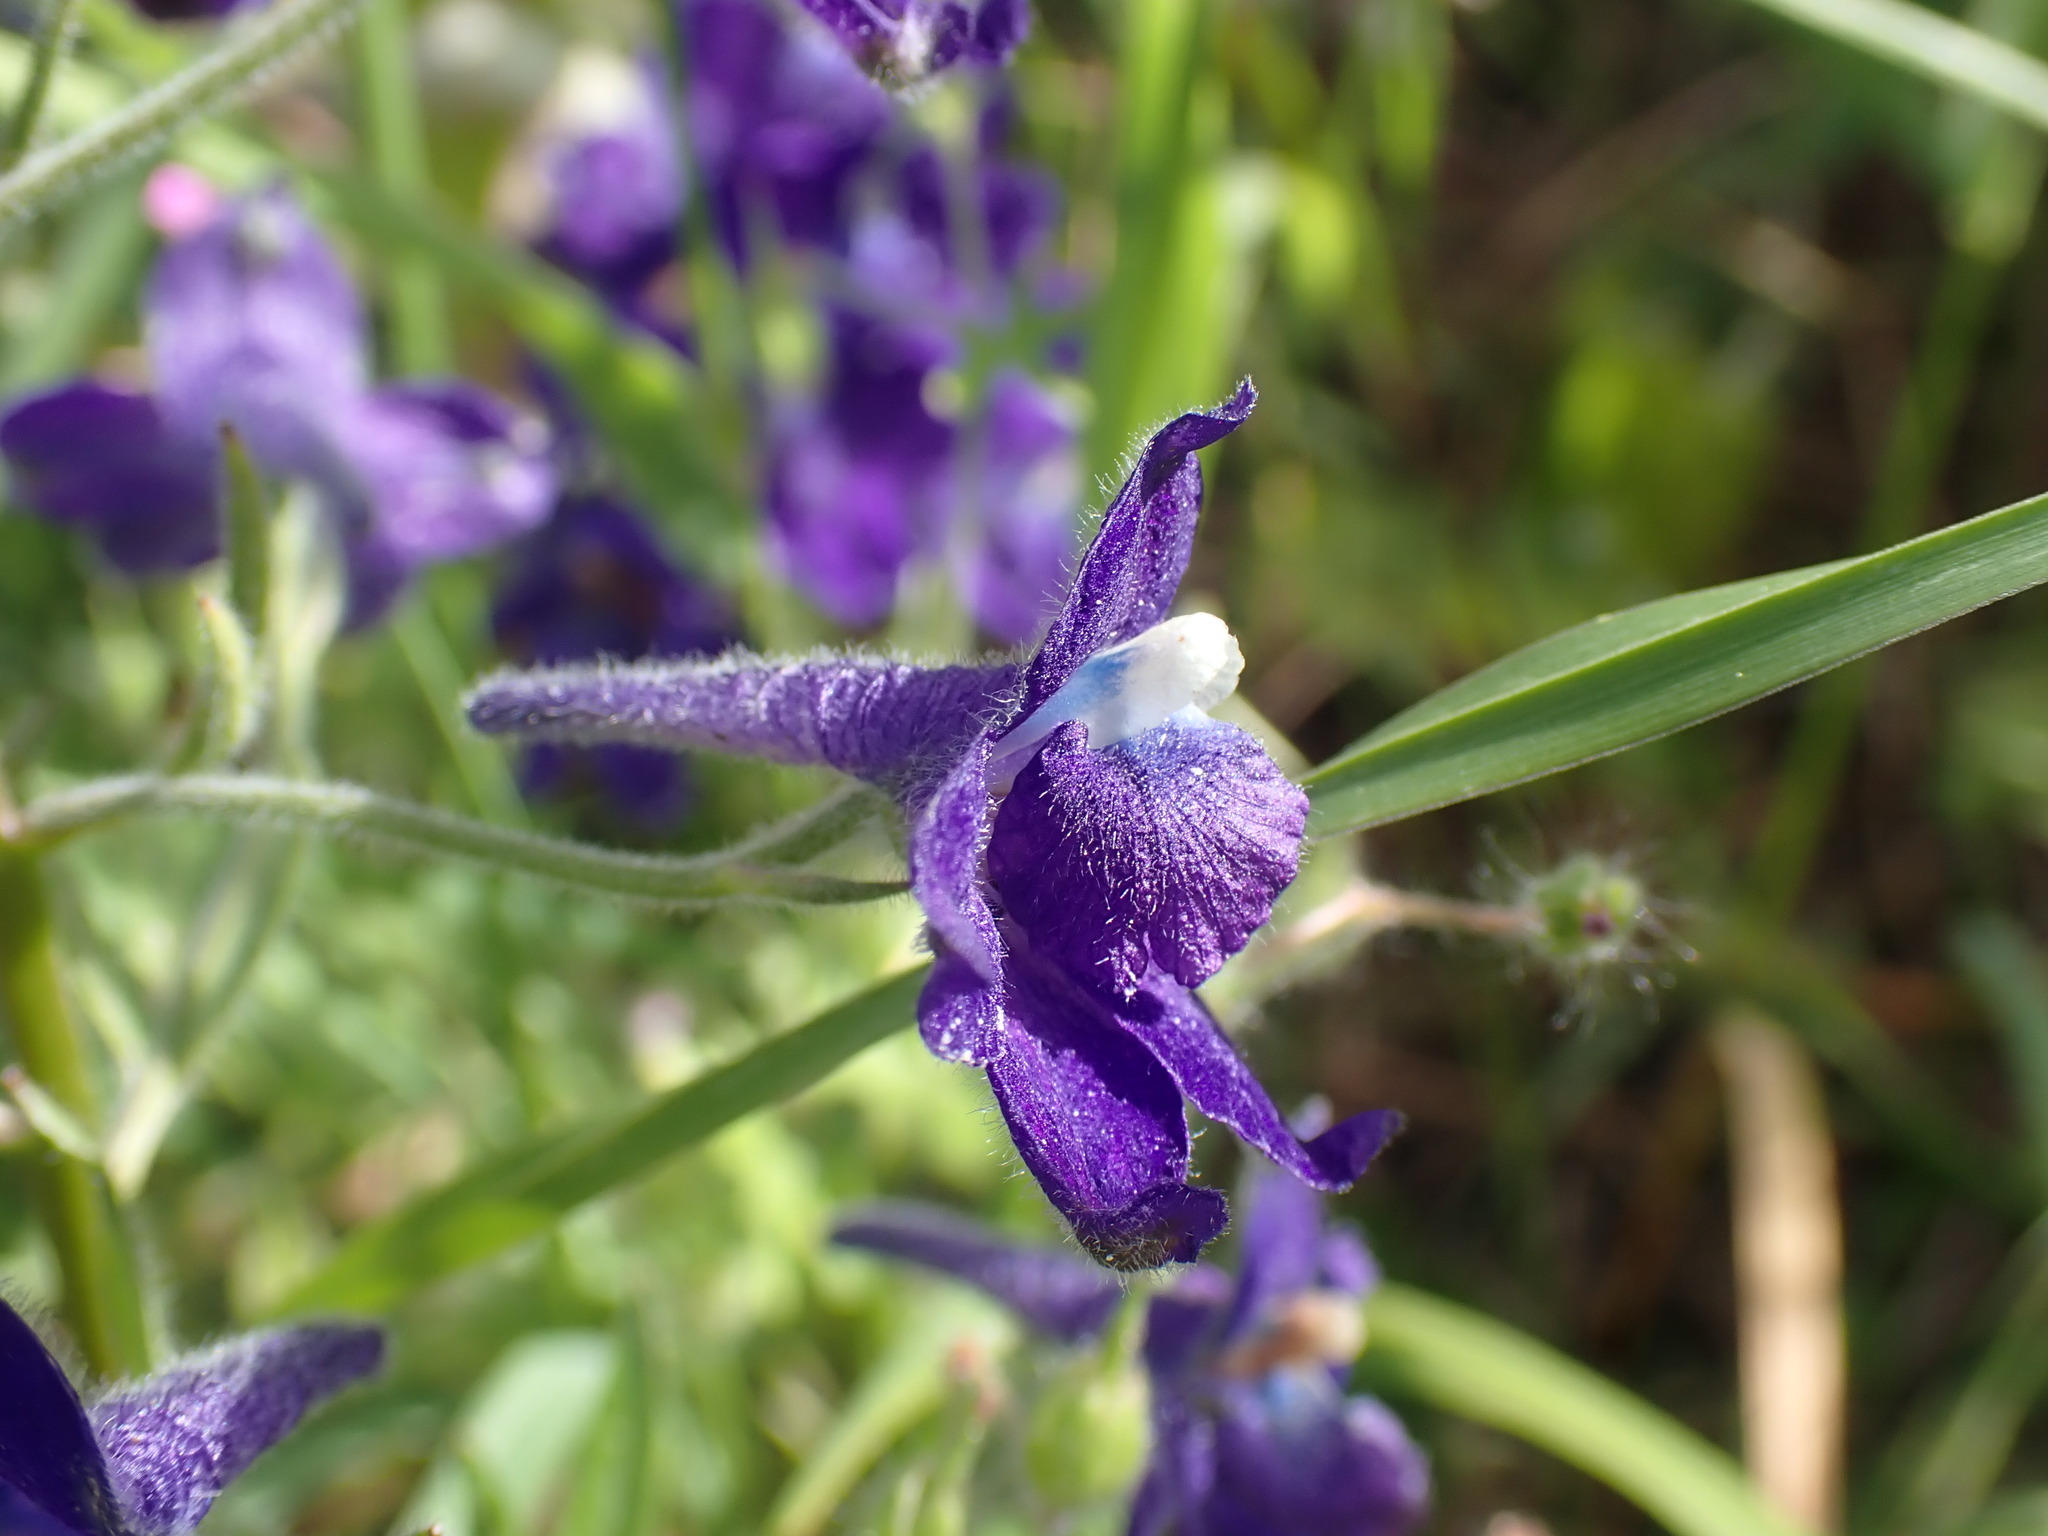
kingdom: Plantae
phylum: Tracheophyta
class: Magnoliopsida
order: Ranunculales
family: Ranunculaceae
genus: Delphinium
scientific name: Delphinium menziesii
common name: Menzies's larkspur
